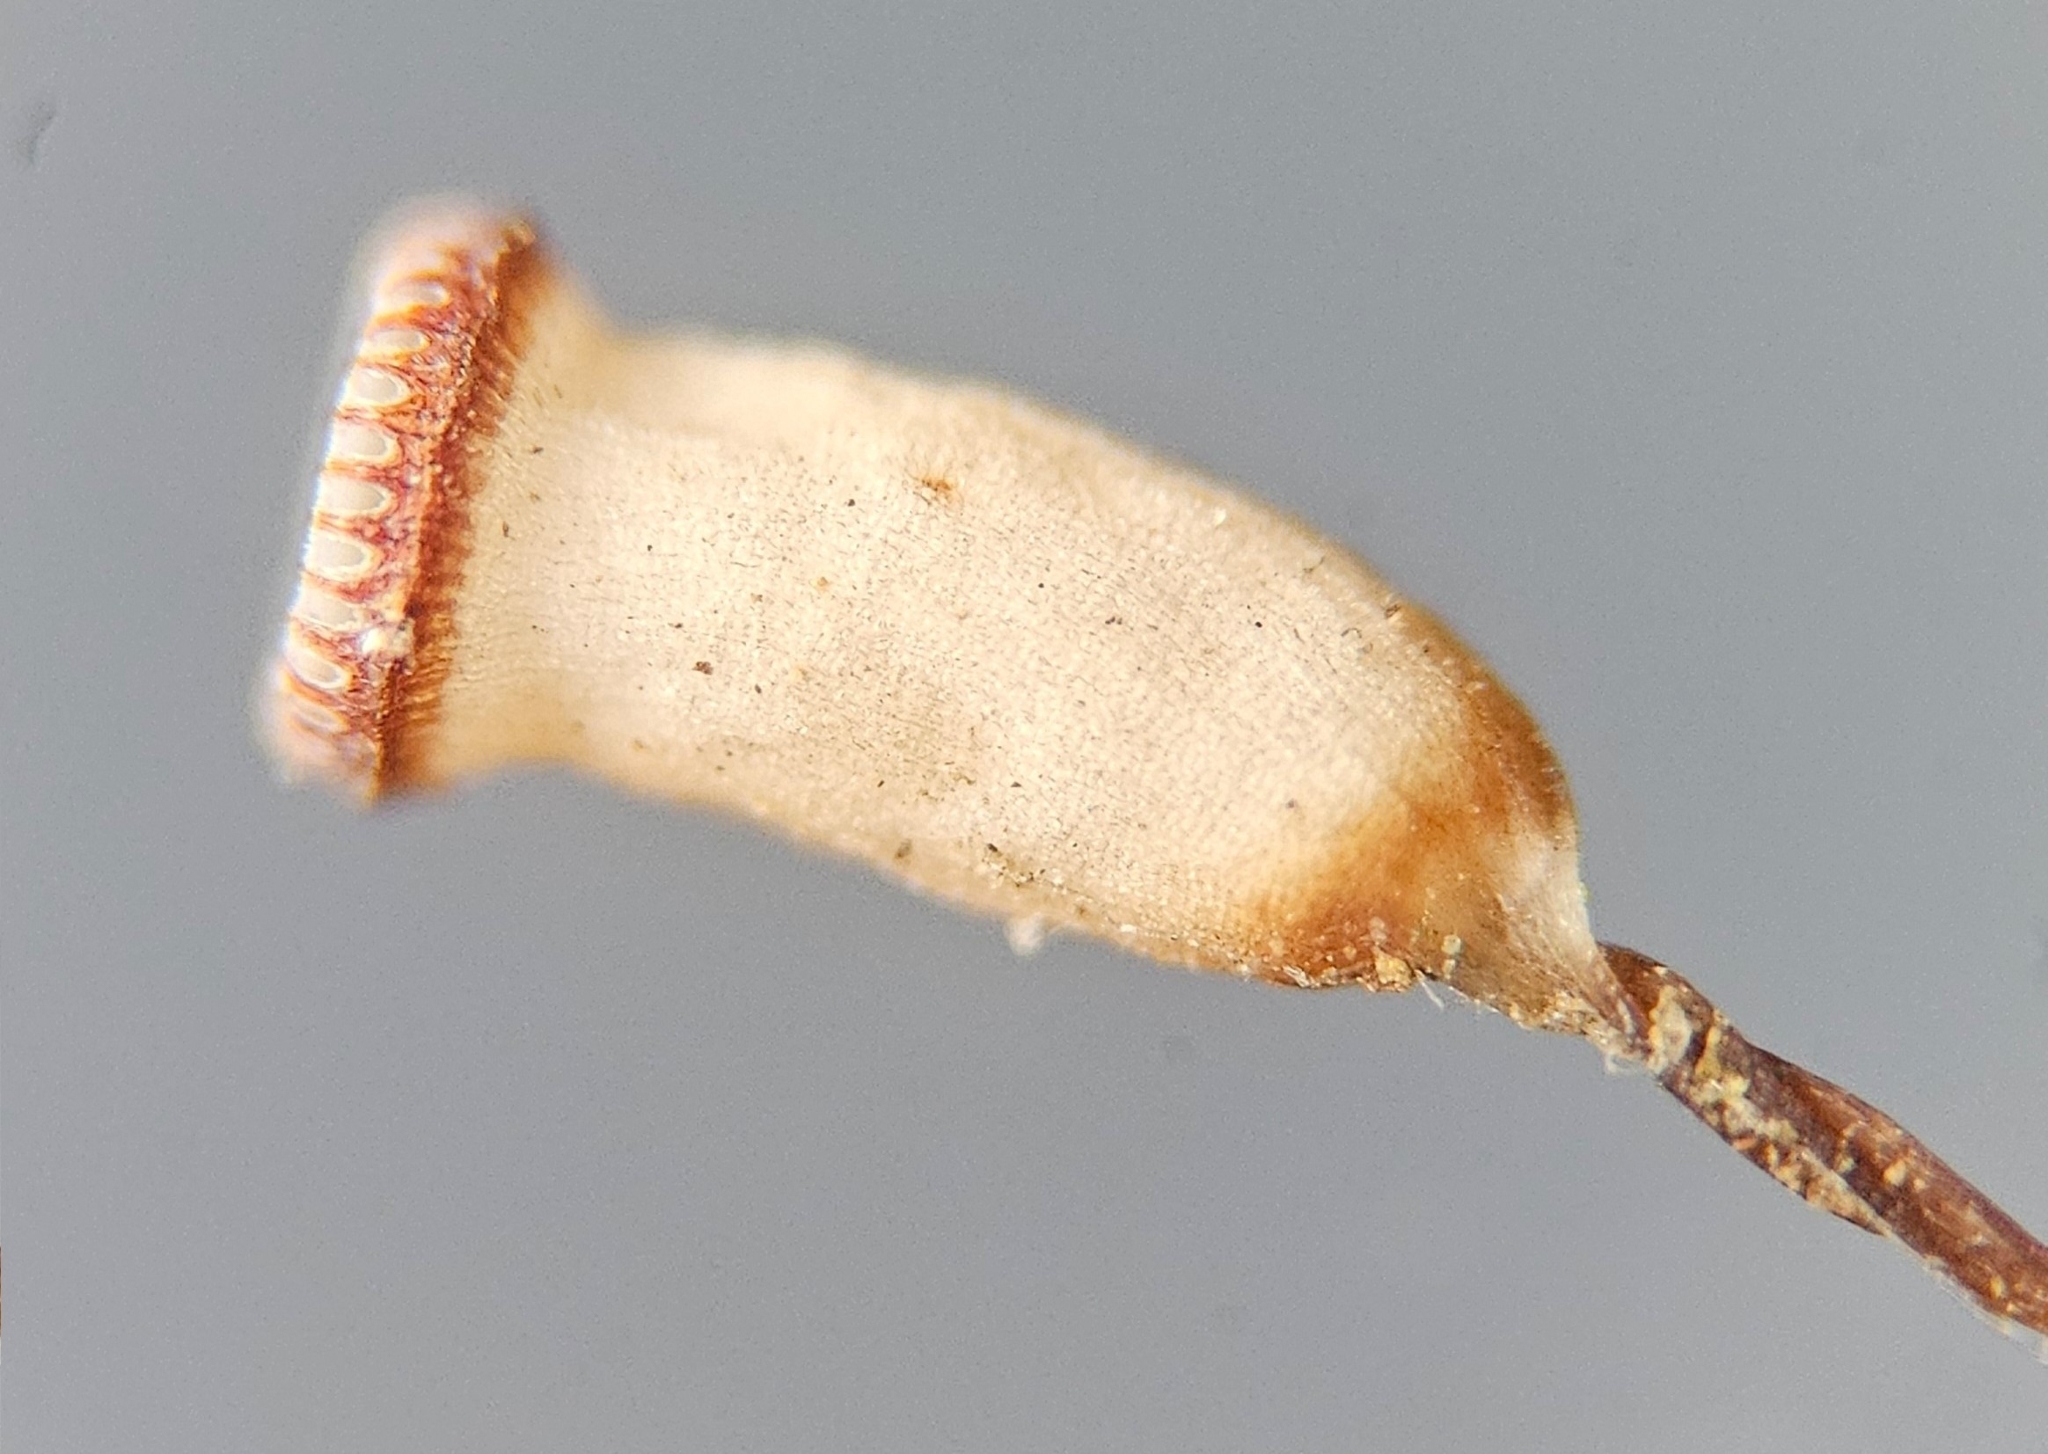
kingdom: Plantae
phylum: Bryophyta
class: Polytrichopsida
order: Polytrichales
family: Polytrichaceae
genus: Pogonatum
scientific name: Pogonatum aloides
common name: Aloe haircap
